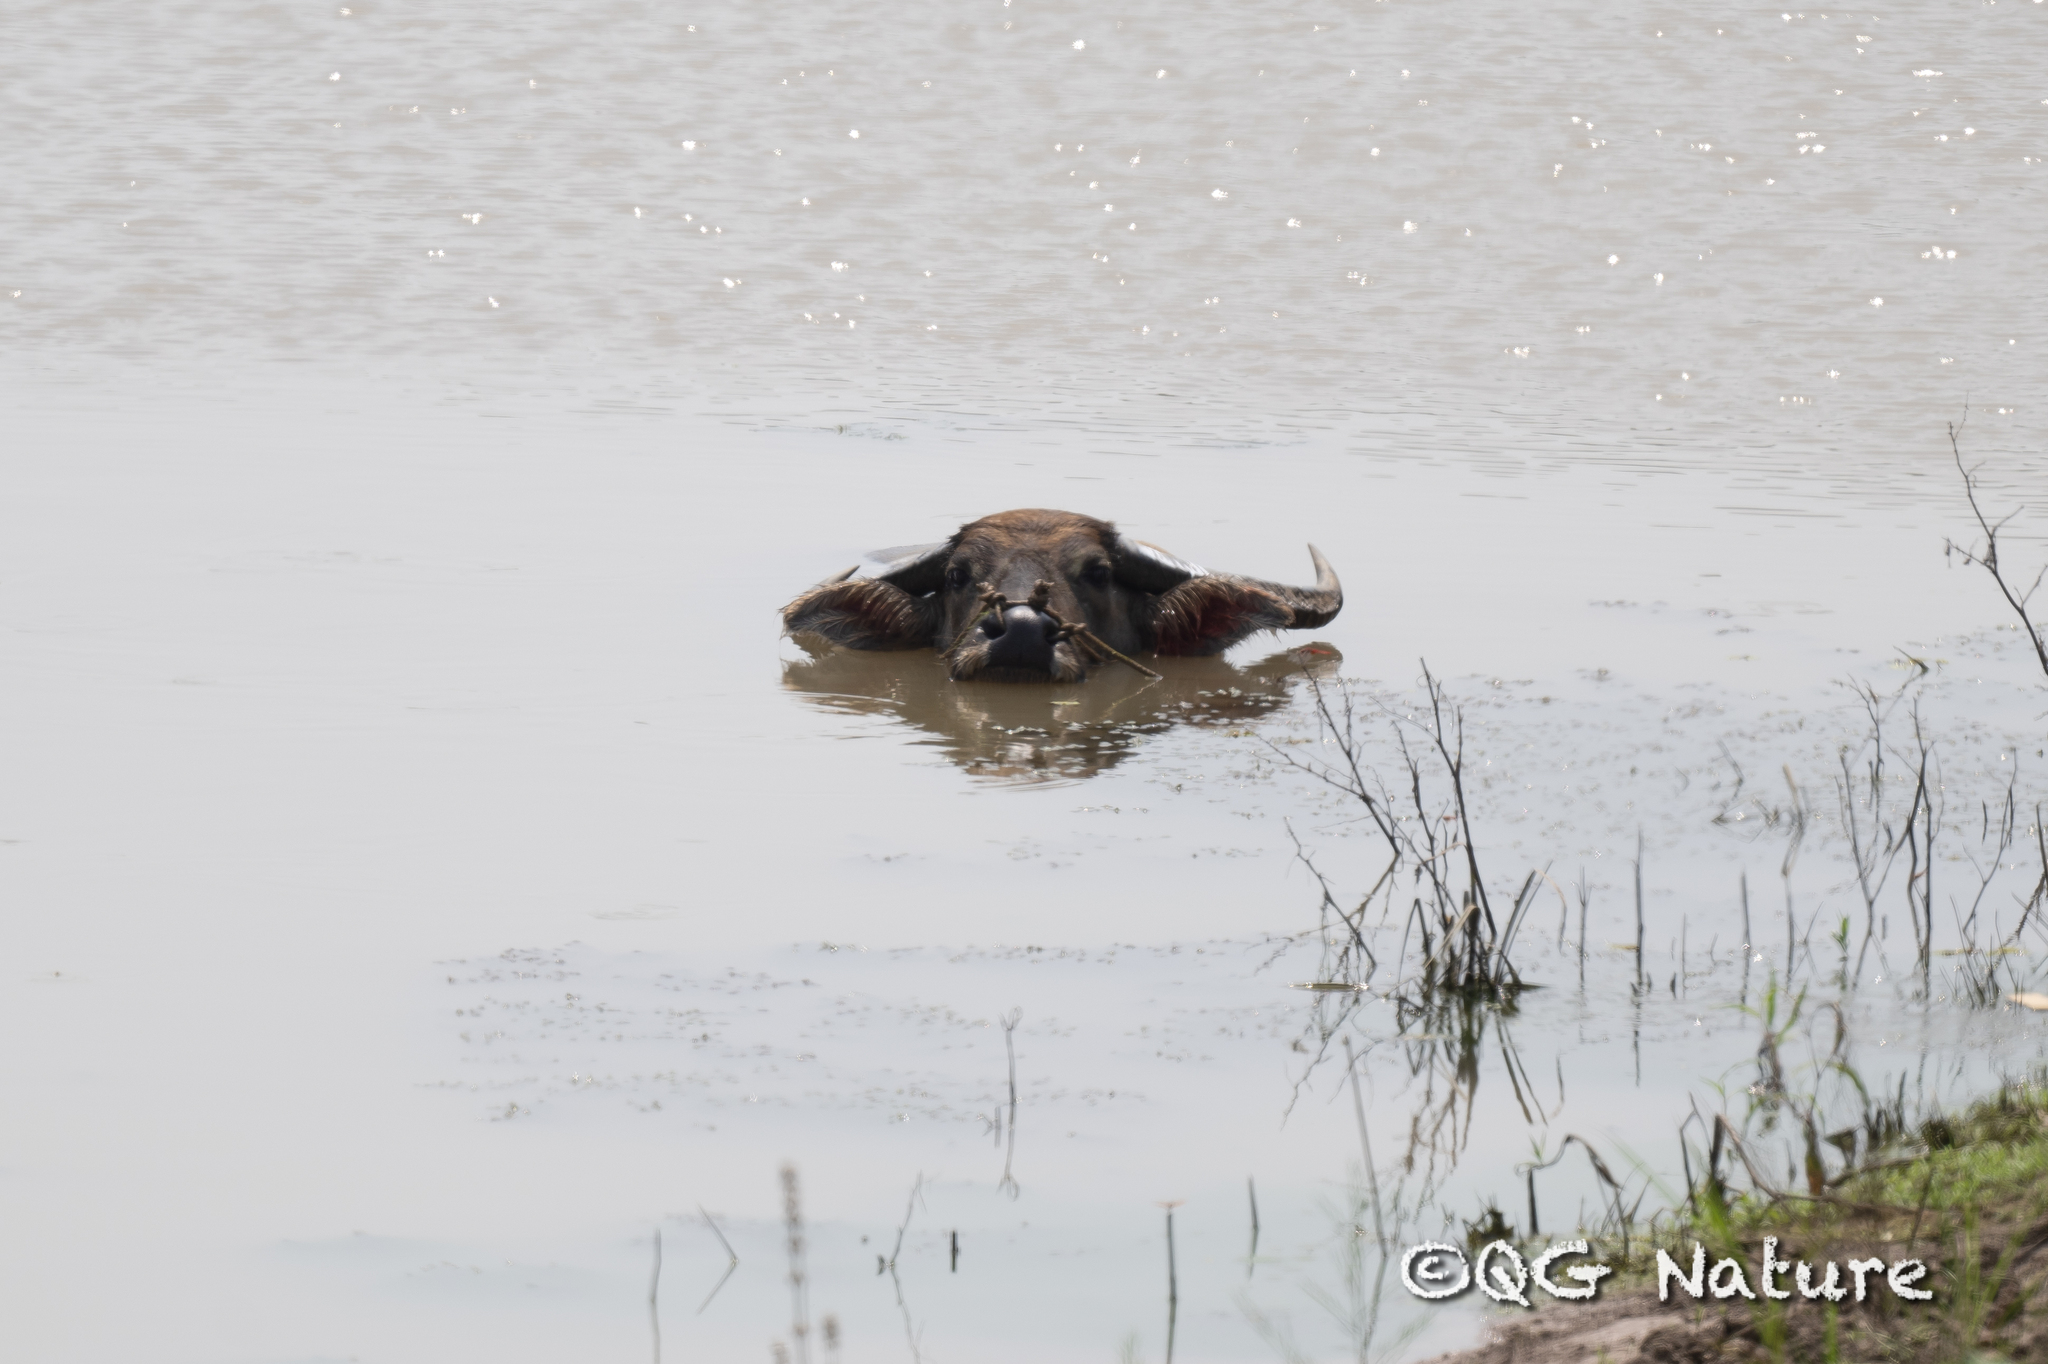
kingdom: Animalia
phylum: Chordata
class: Mammalia
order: Artiodactyla
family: Bovidae
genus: Bubalus
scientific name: Bubalus bubalis
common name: Water buffalo
